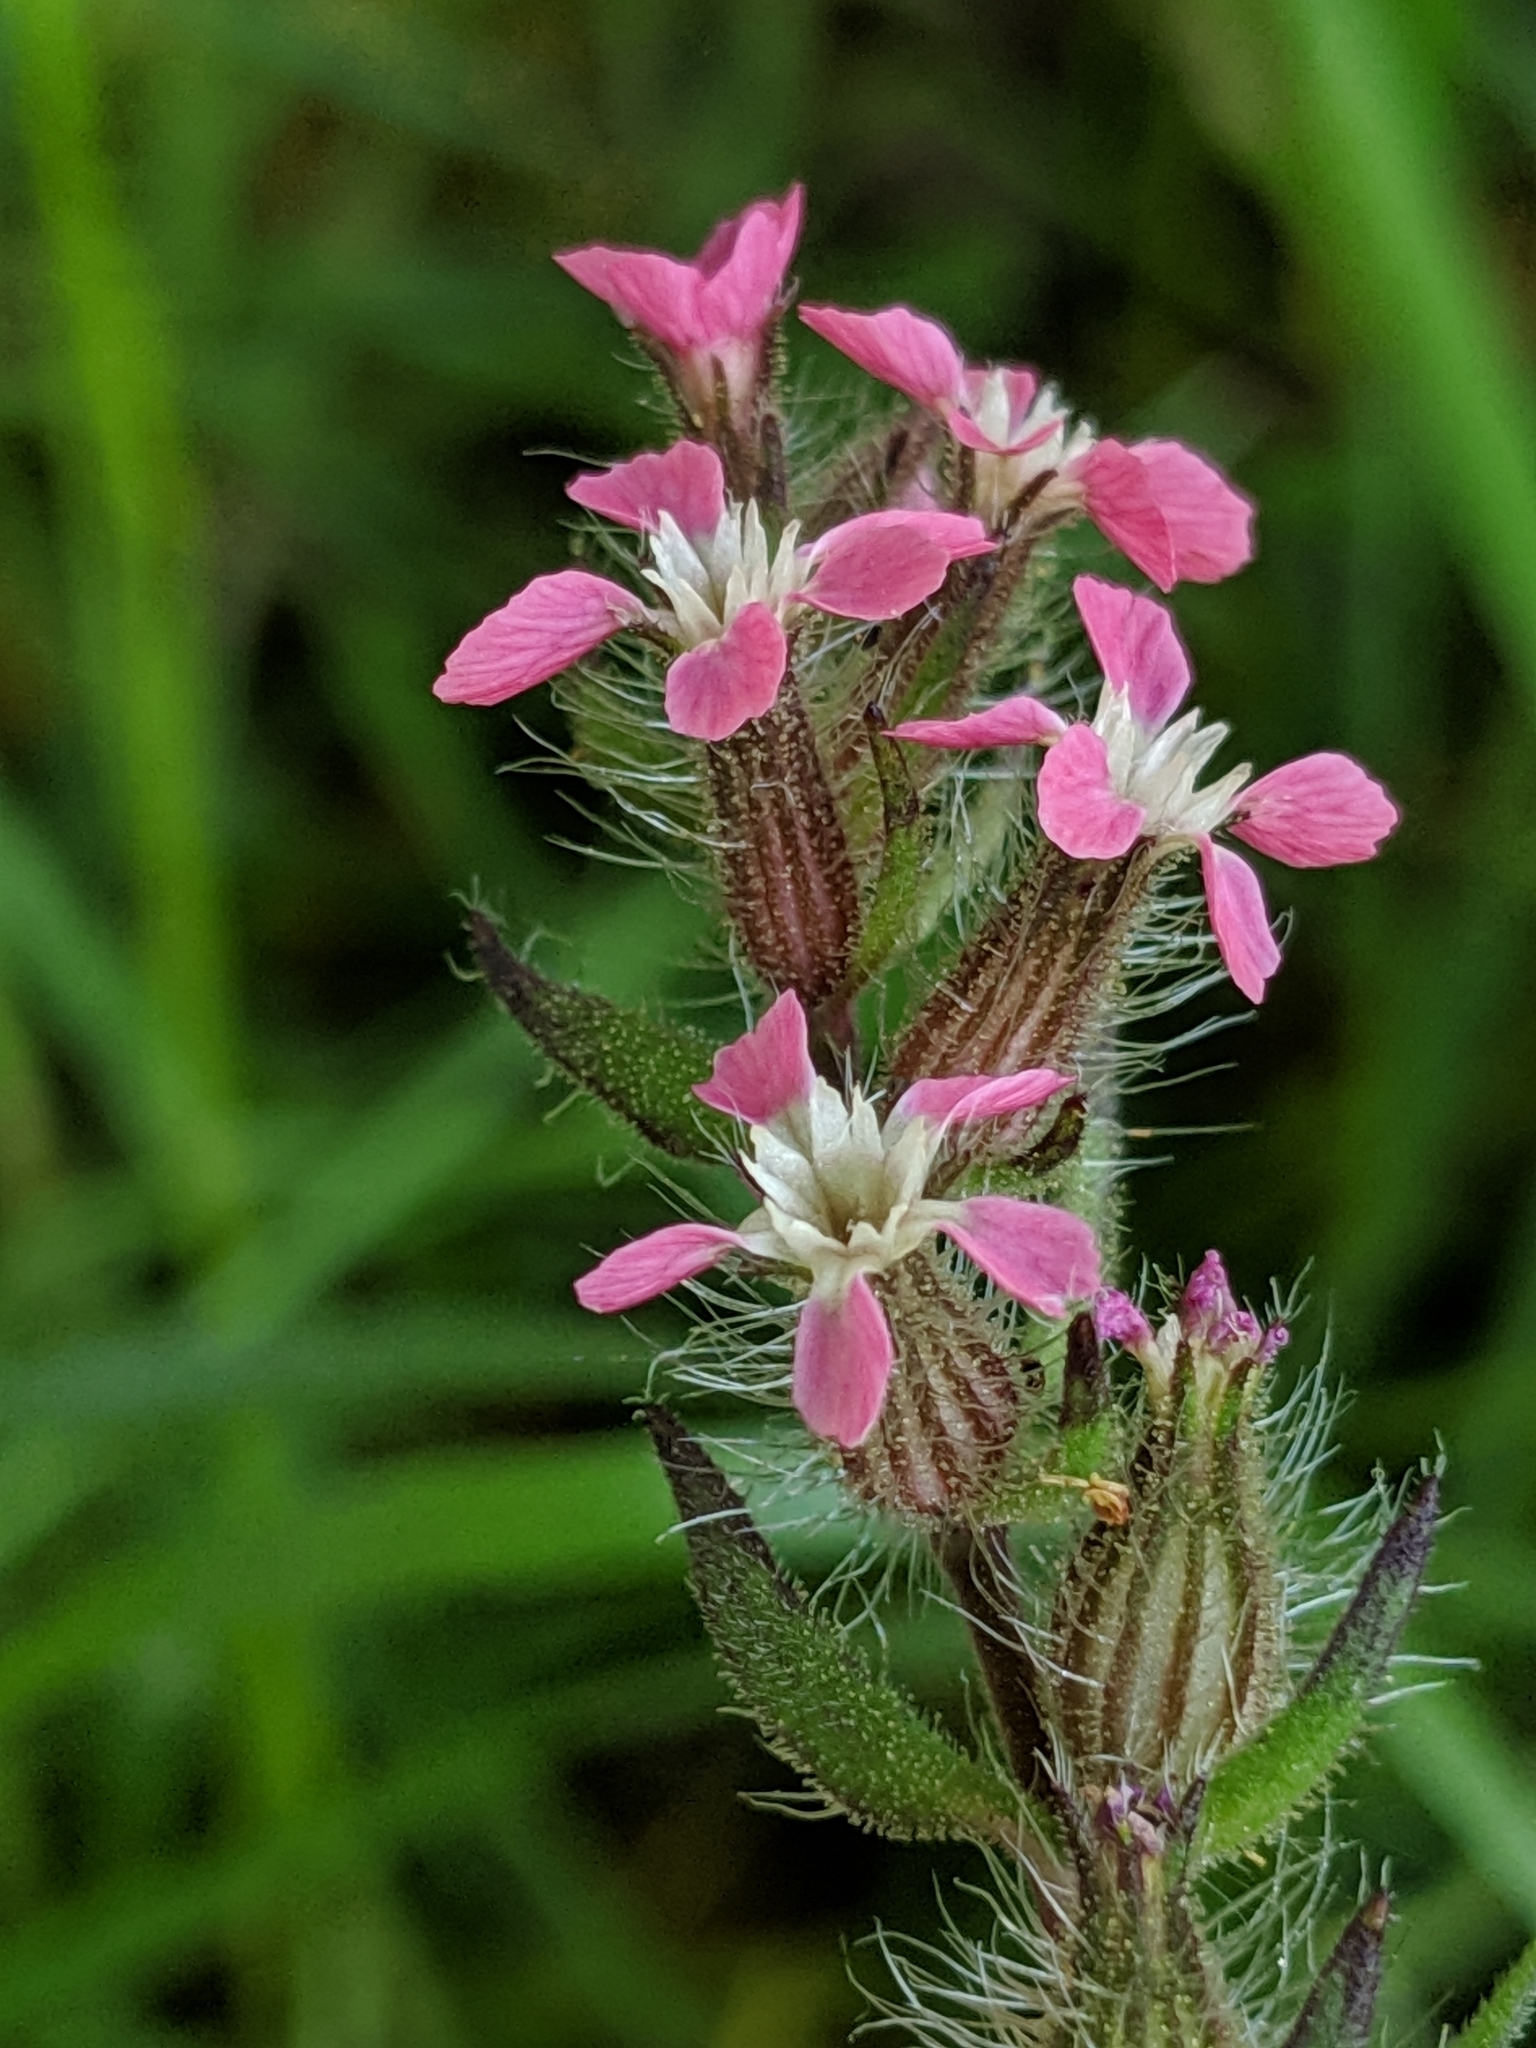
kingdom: Plantae
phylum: Tracheophyta
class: Magnoliopsida
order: Caryophyllales
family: Caryophyllaceae
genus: Silene
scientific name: Silene gallica
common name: Small-flowered catchfly
